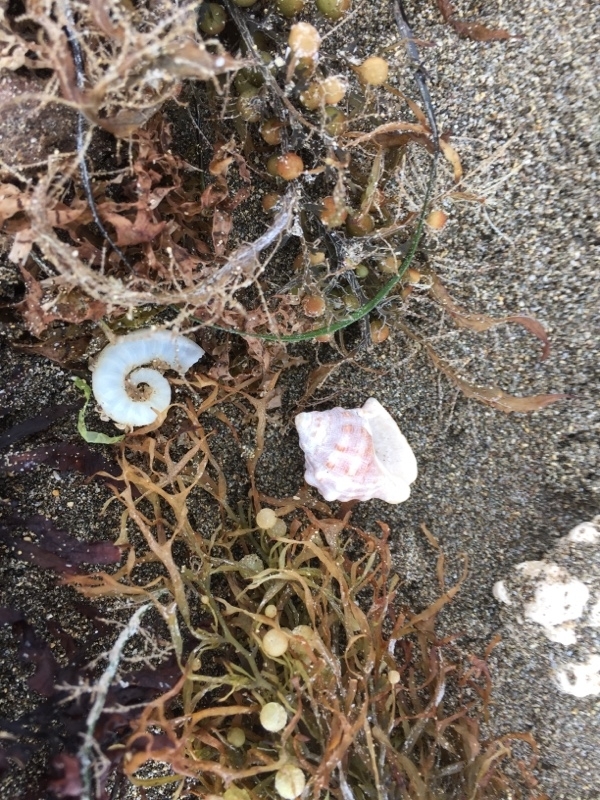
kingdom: Animalia
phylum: Mollusca
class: Cephalopoda
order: Spirulida
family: Spirulidae
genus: Spirula
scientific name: Spirula spirula
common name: Ram's horn squid
